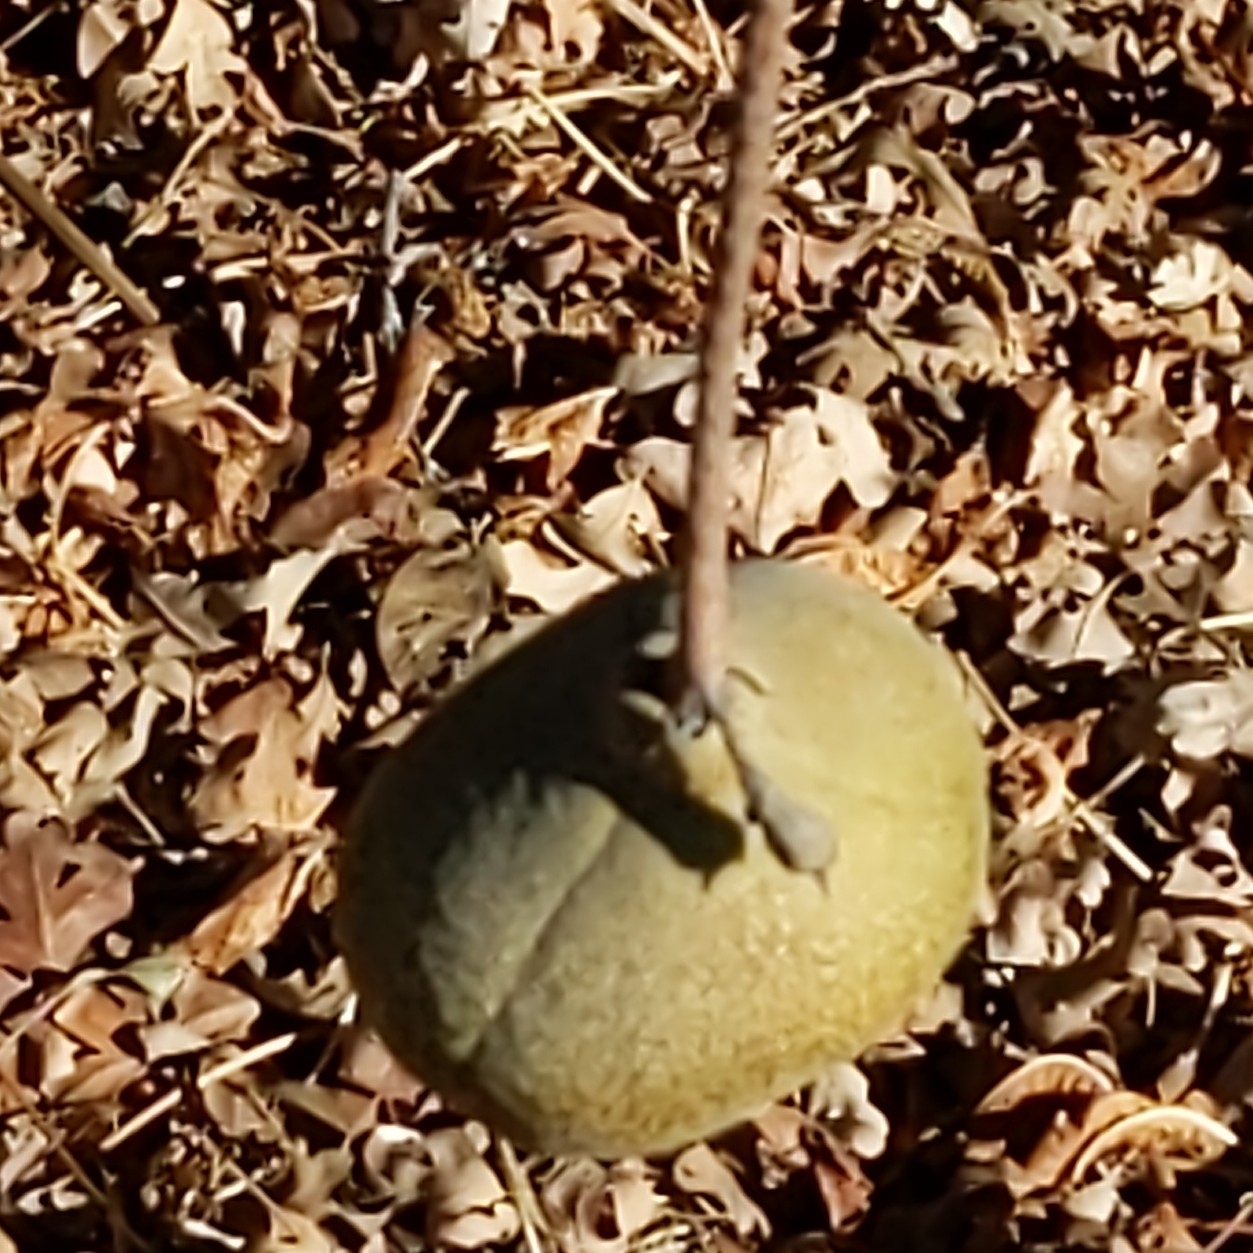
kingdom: Plantae
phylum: Tracheophyta
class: Magnoliopsida
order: Sapindales
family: Sapindaceae
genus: Aesculus
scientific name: Aesculus californica
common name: California buckeye
